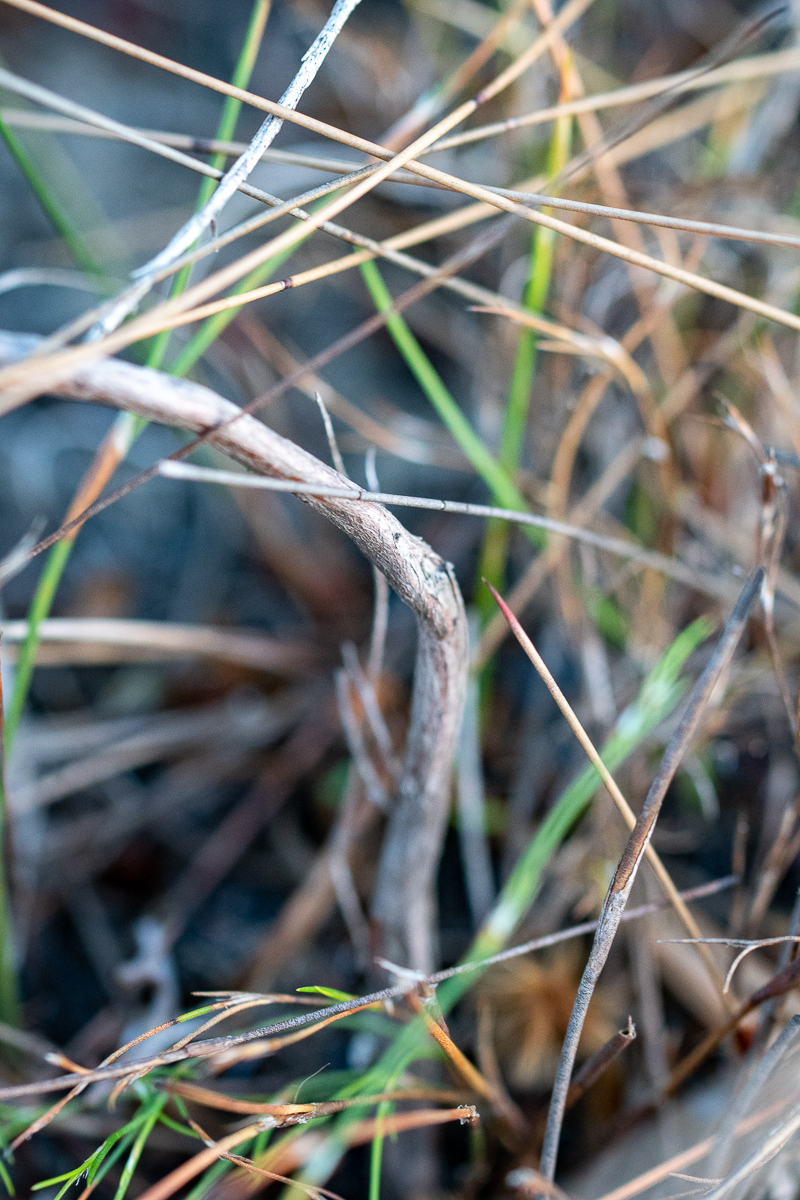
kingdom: Plantae
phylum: Tracheophyta
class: Magnoliopsida
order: Ericales
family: Ericaceae
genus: Erica
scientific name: Erica corifolia
